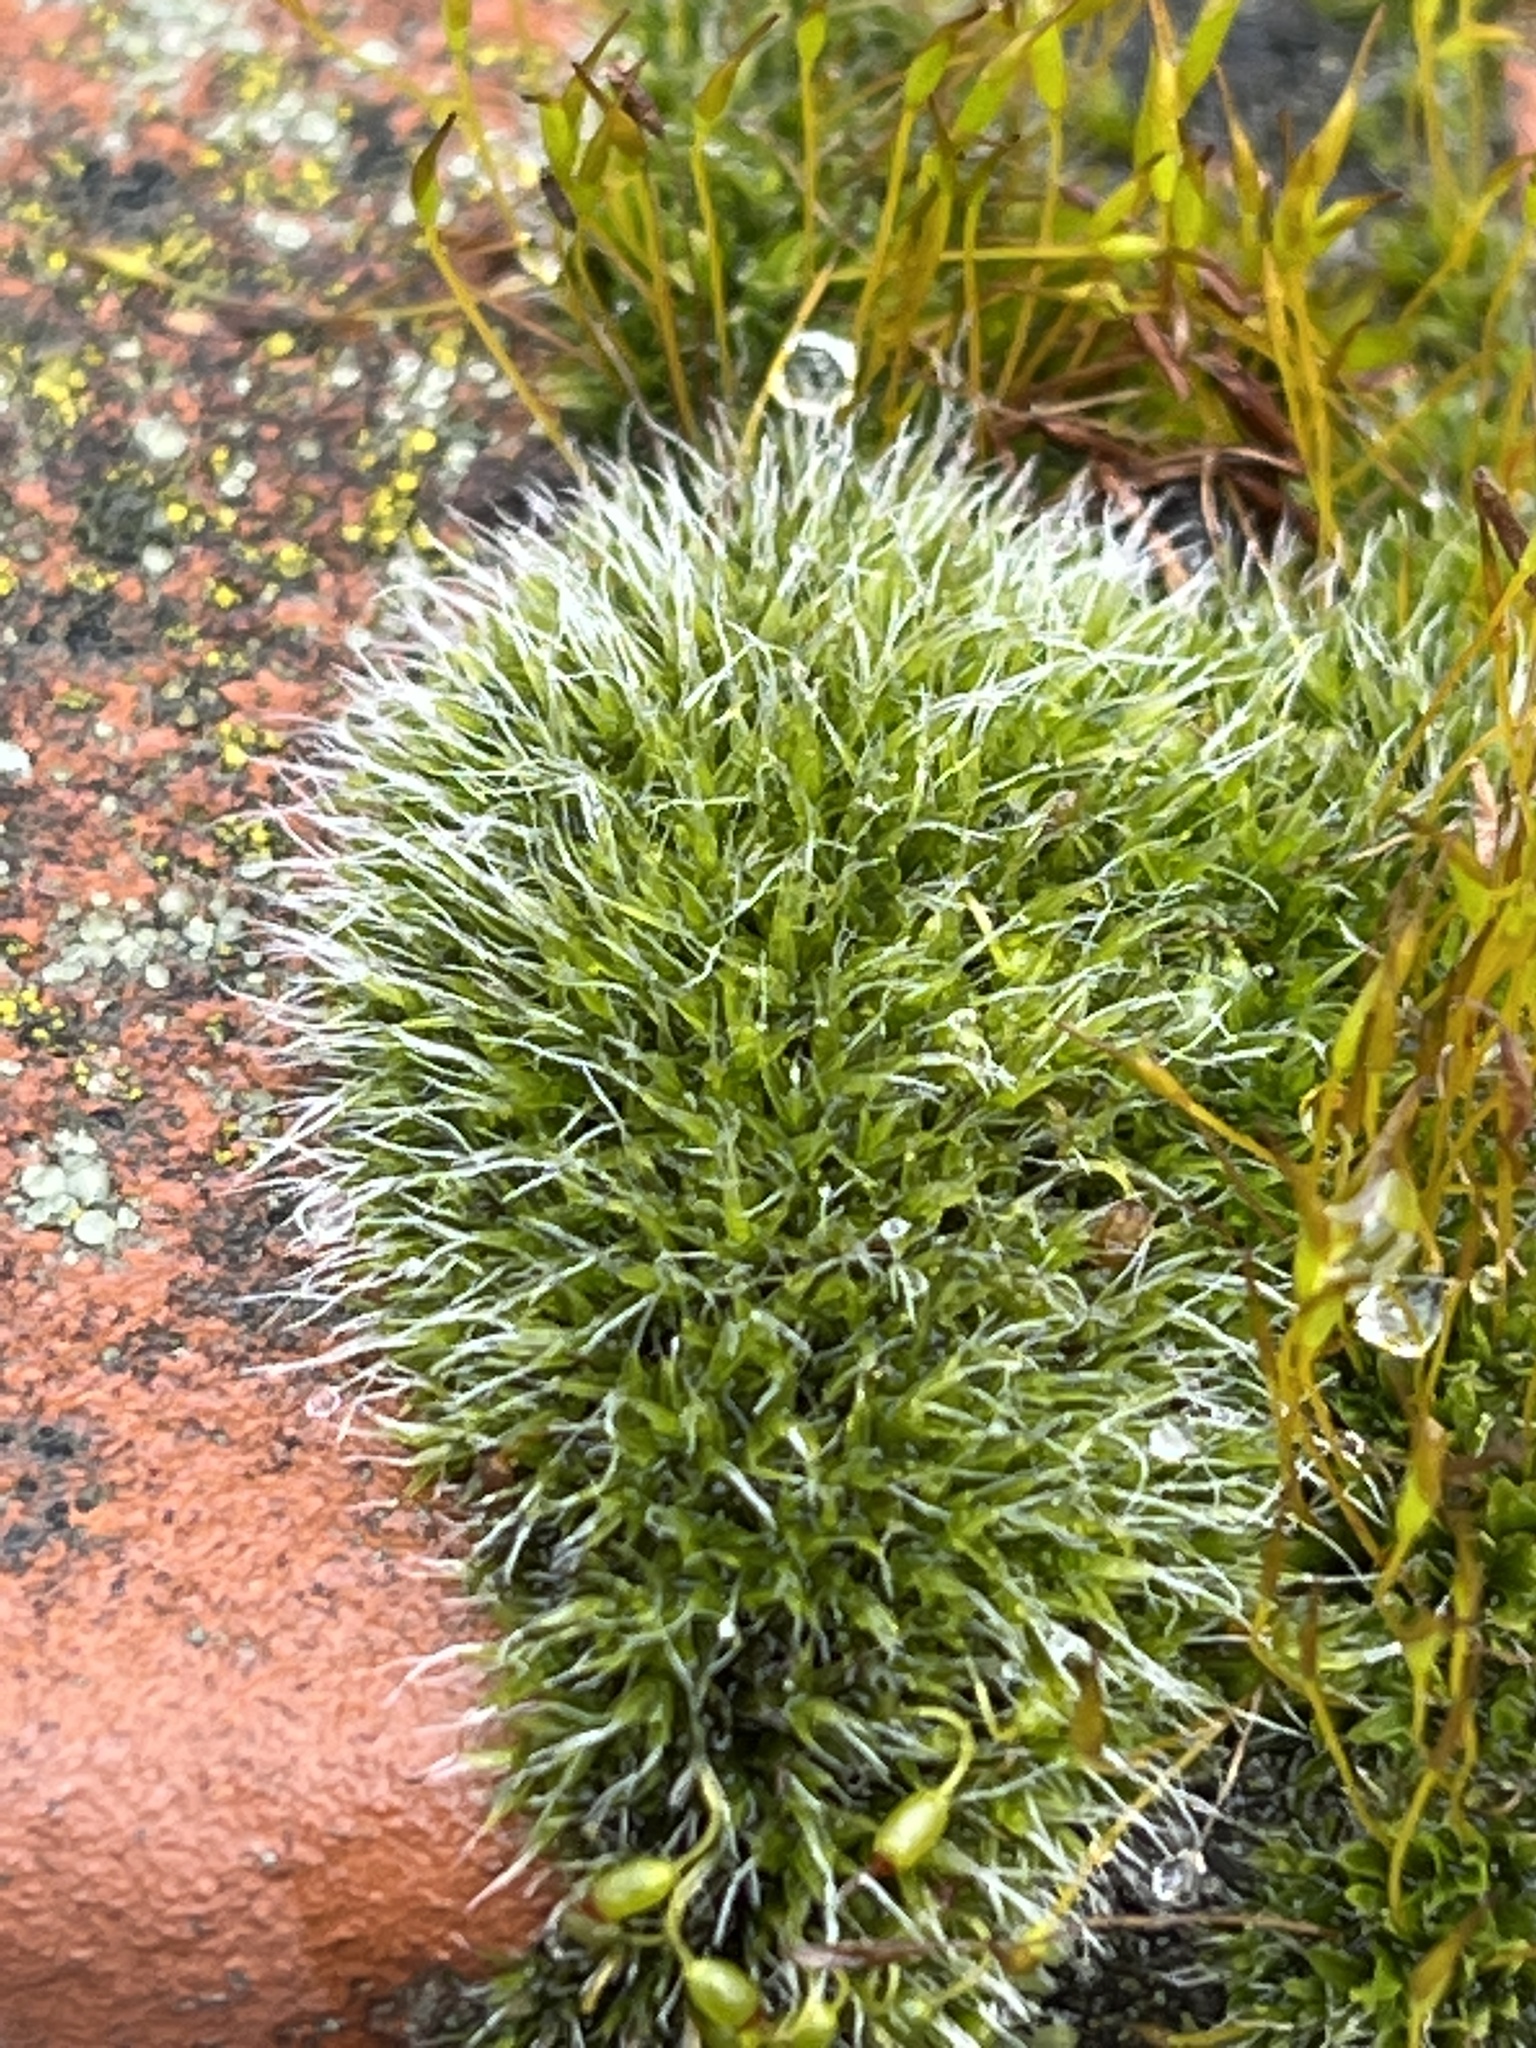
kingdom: Plantae
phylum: Bryophyta
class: Bryopsida
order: Grimmiales
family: Grimmiaceae
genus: Grimmia
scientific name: Grimmia pulvinata
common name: Grey-cushioned grimmia
